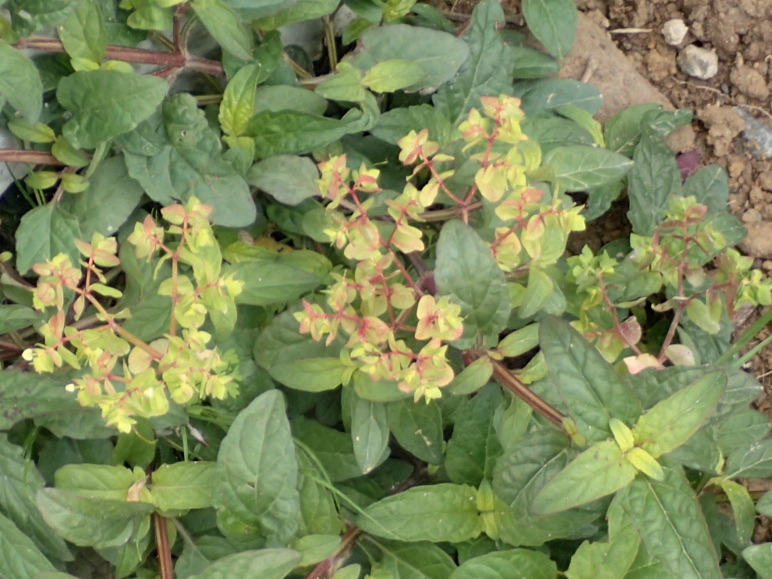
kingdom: Plantae
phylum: Tracheophyta
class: Magnoliopsida
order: Malpighiales
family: Euphorbiaceae
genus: Euphorbia
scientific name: Euphorbia peplus
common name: Petty spurge
